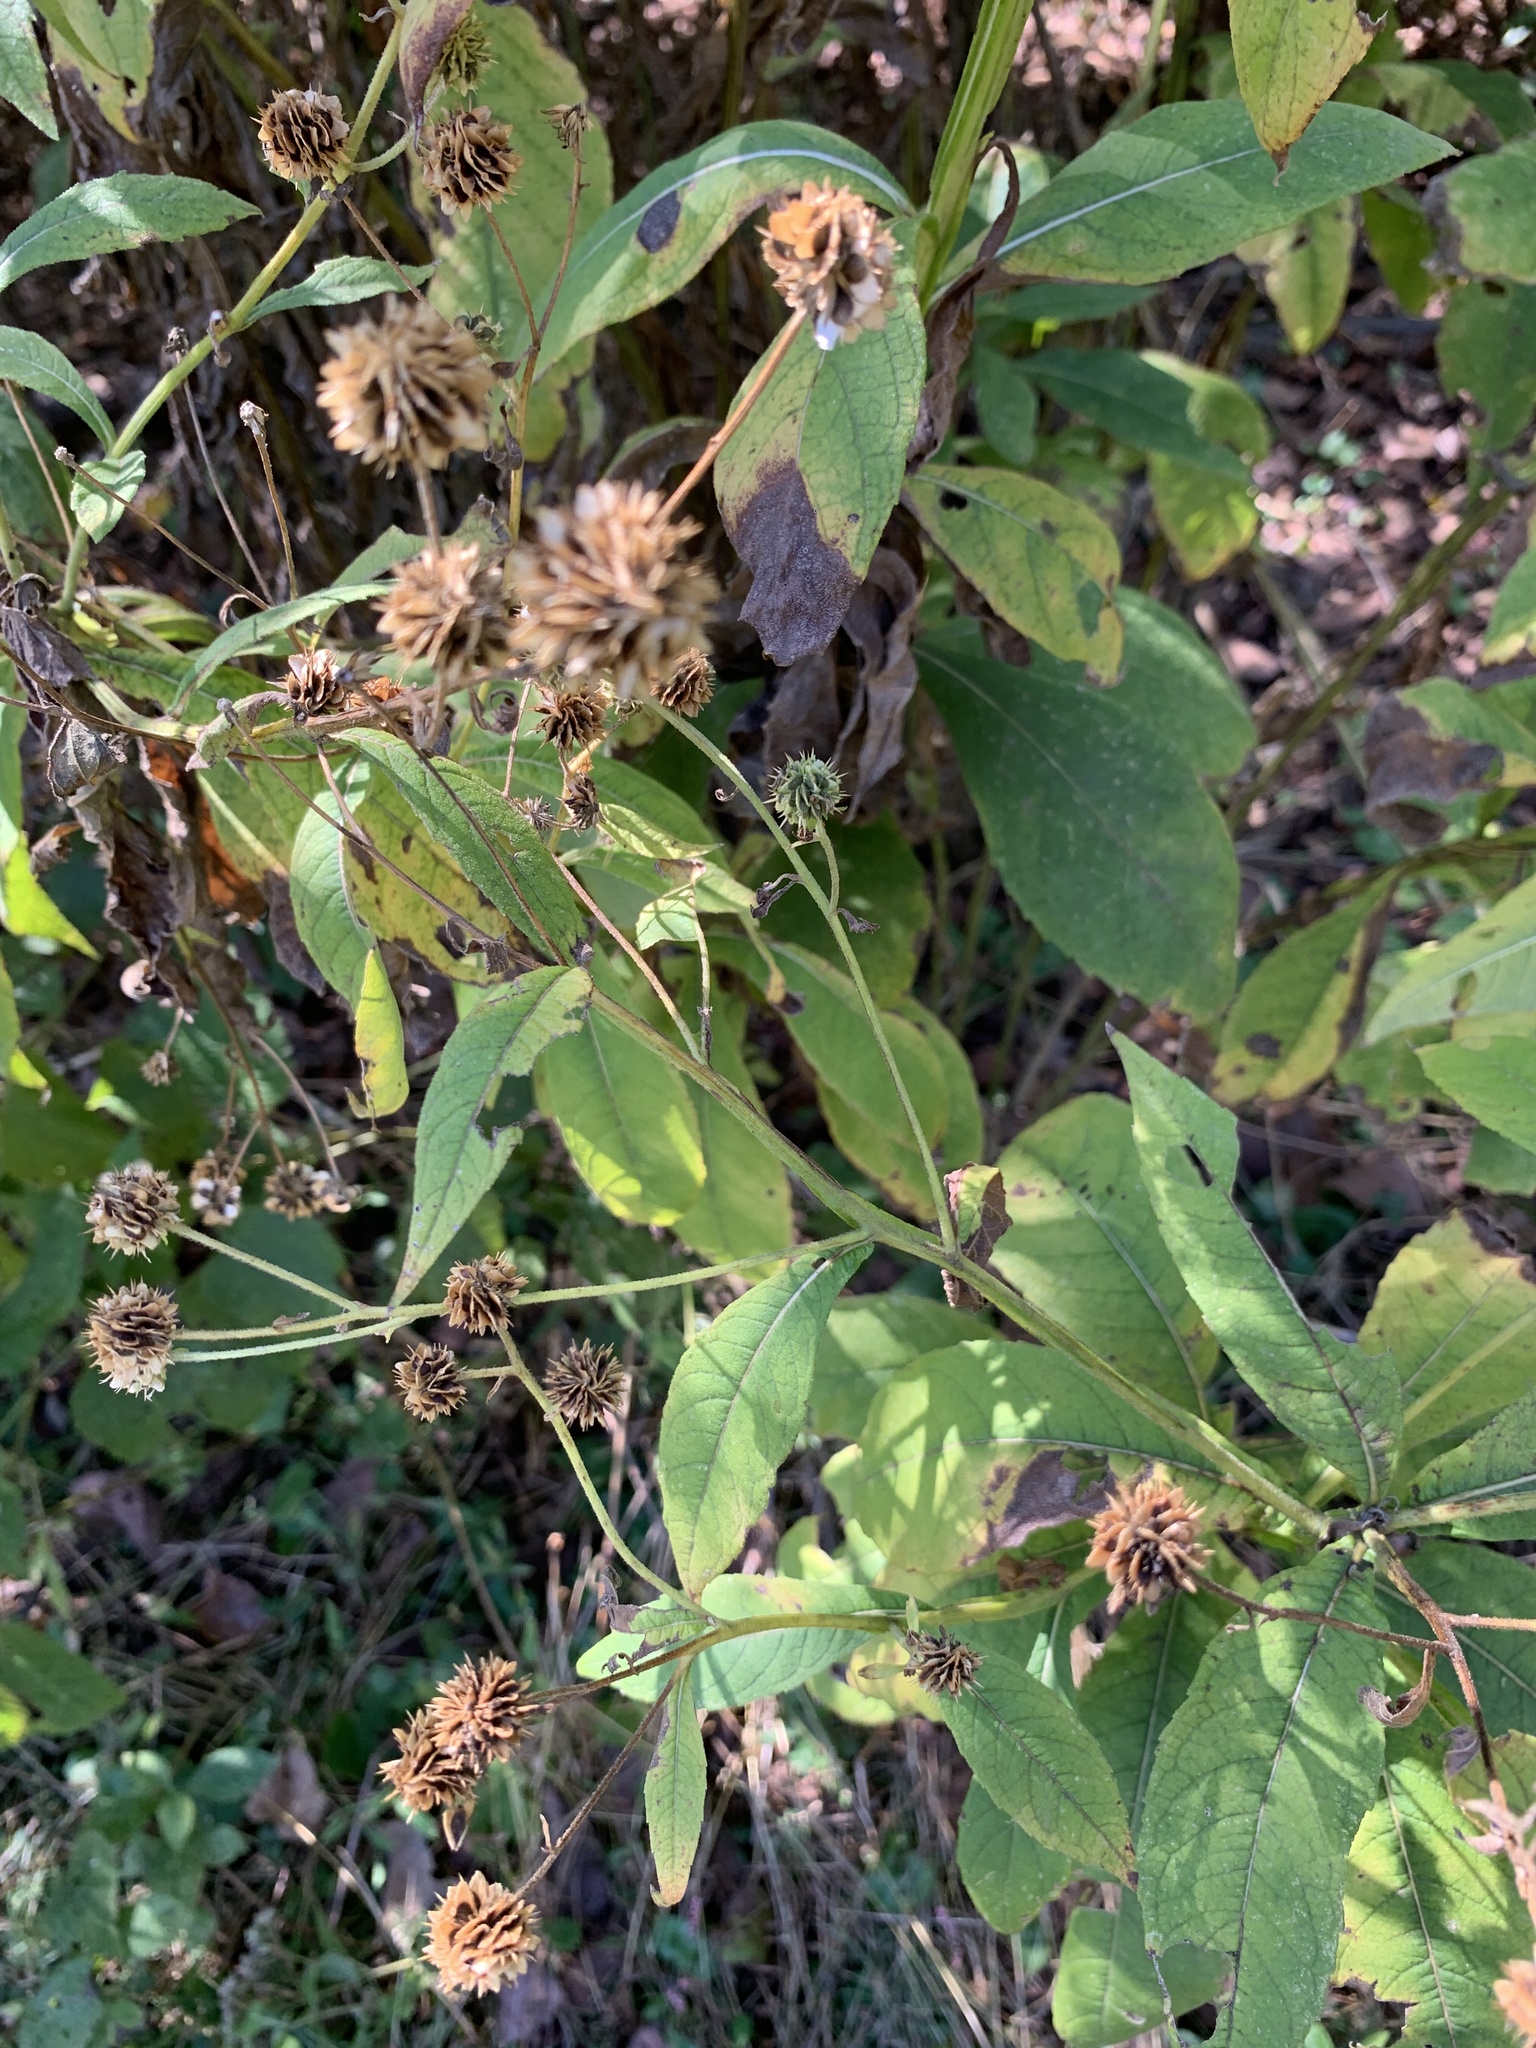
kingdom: Plantae
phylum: Tracheophyta
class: Magnoliopsida
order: Asterales
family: Asteraceae
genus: Verbesina
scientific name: Verbesina alternifolia
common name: Wingstem
